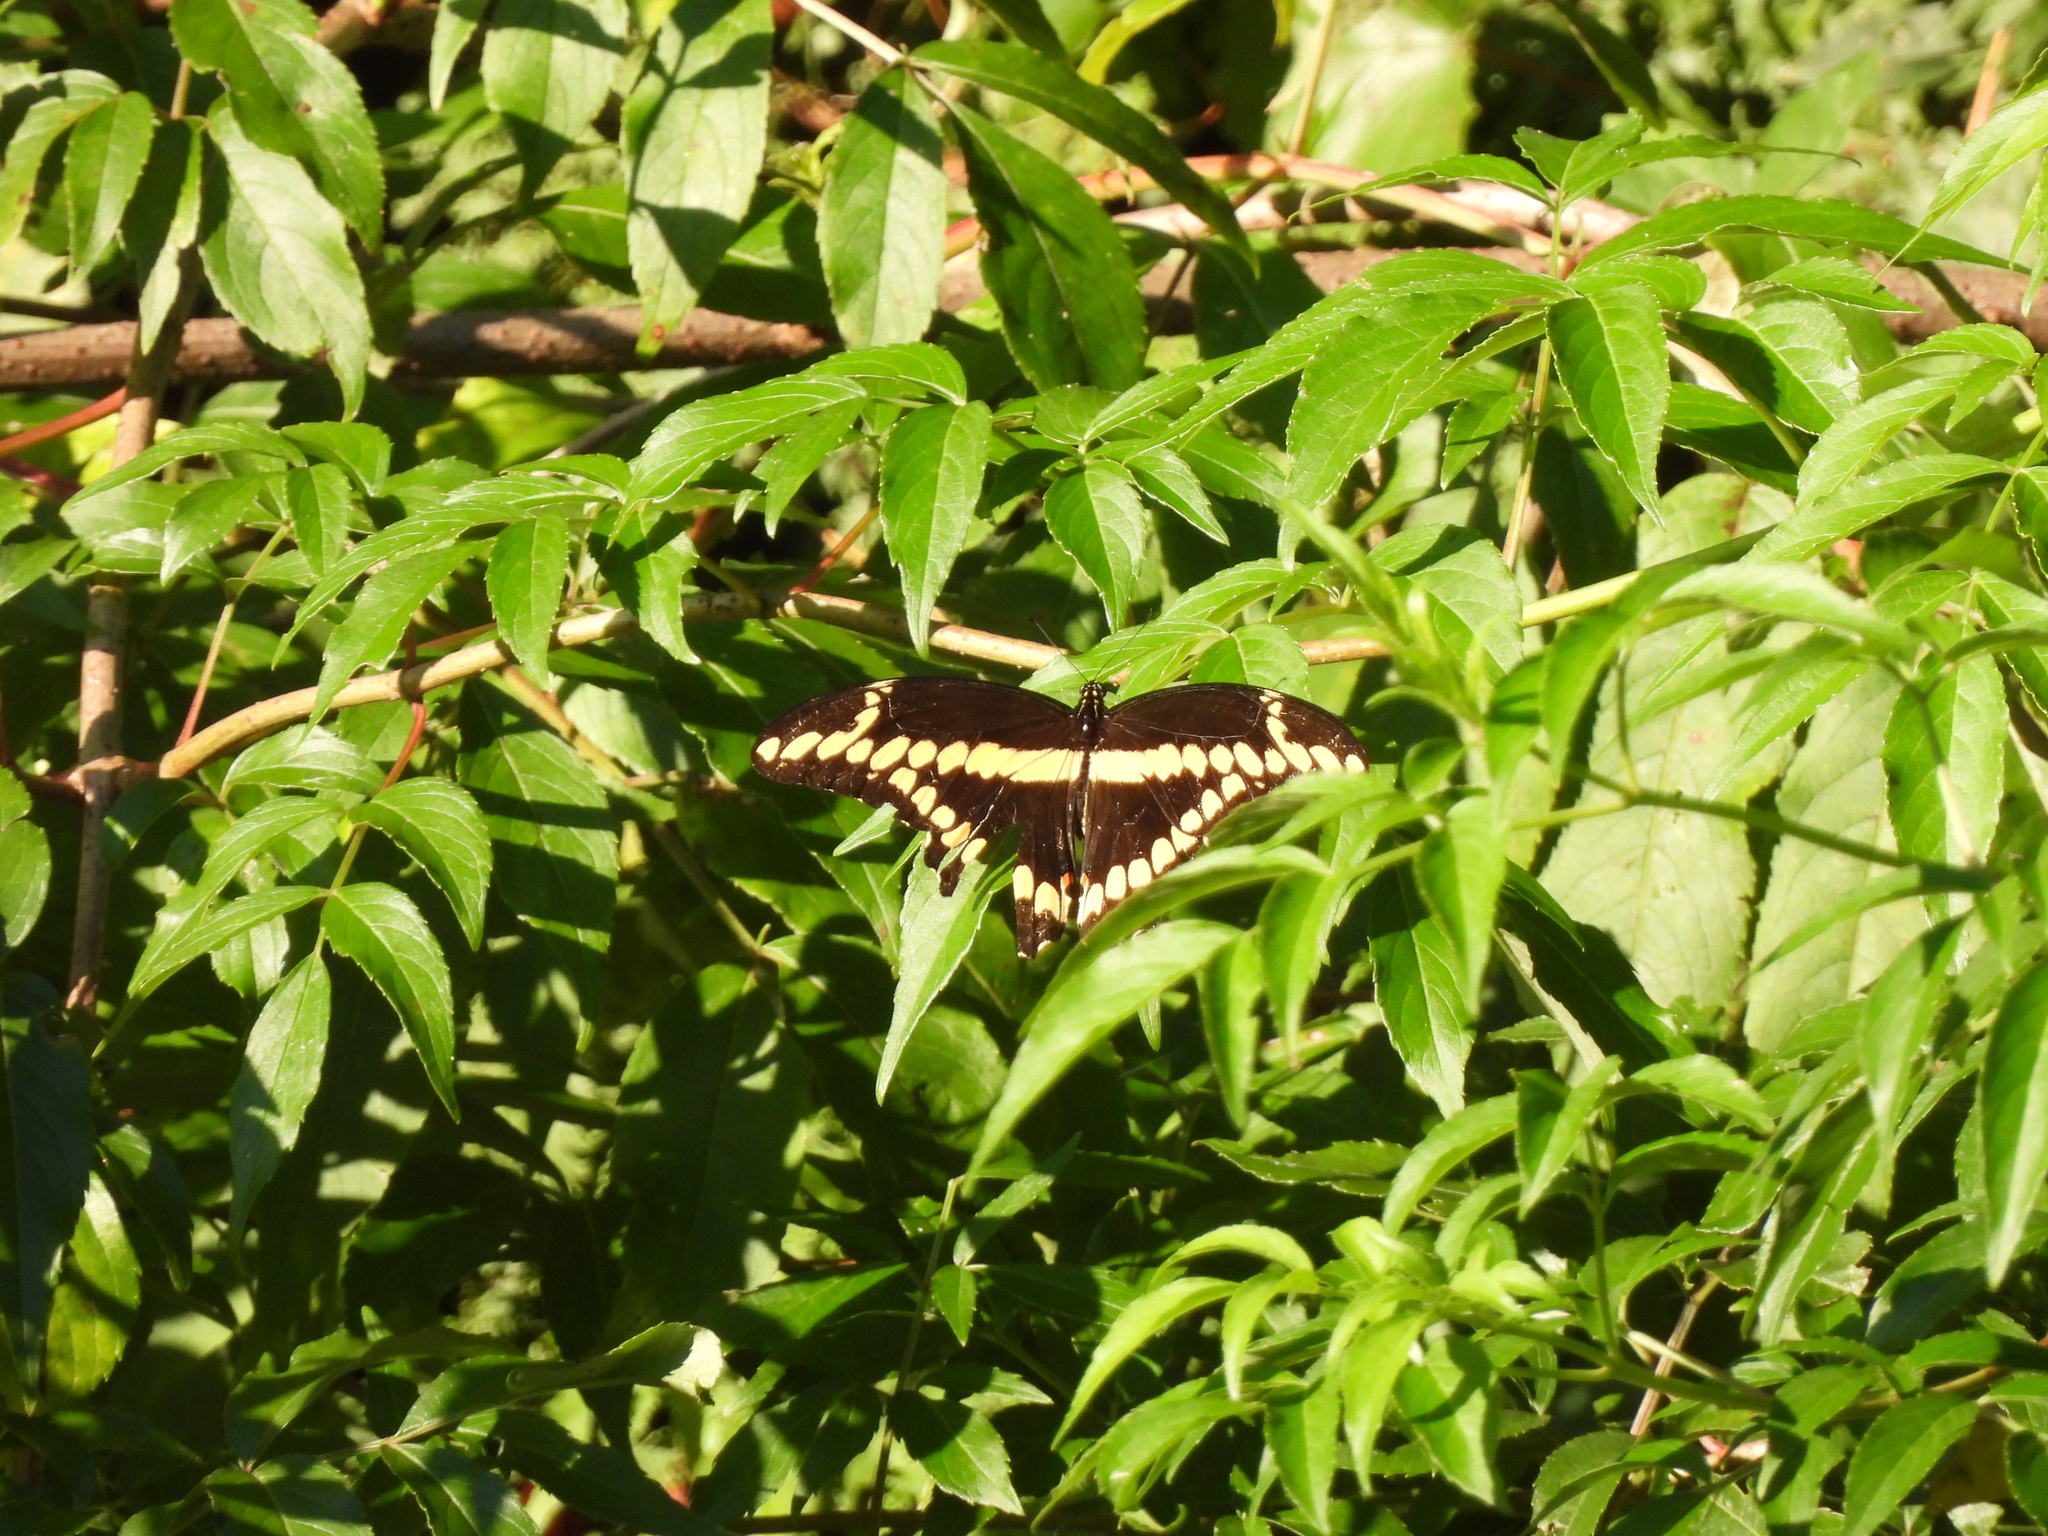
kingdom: Animalia
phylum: Arthropoda
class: Insecta
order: Lepidoptera
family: Papilionidae
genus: Papilio
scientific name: Papilio cresphontes
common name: Giant swallowtail
